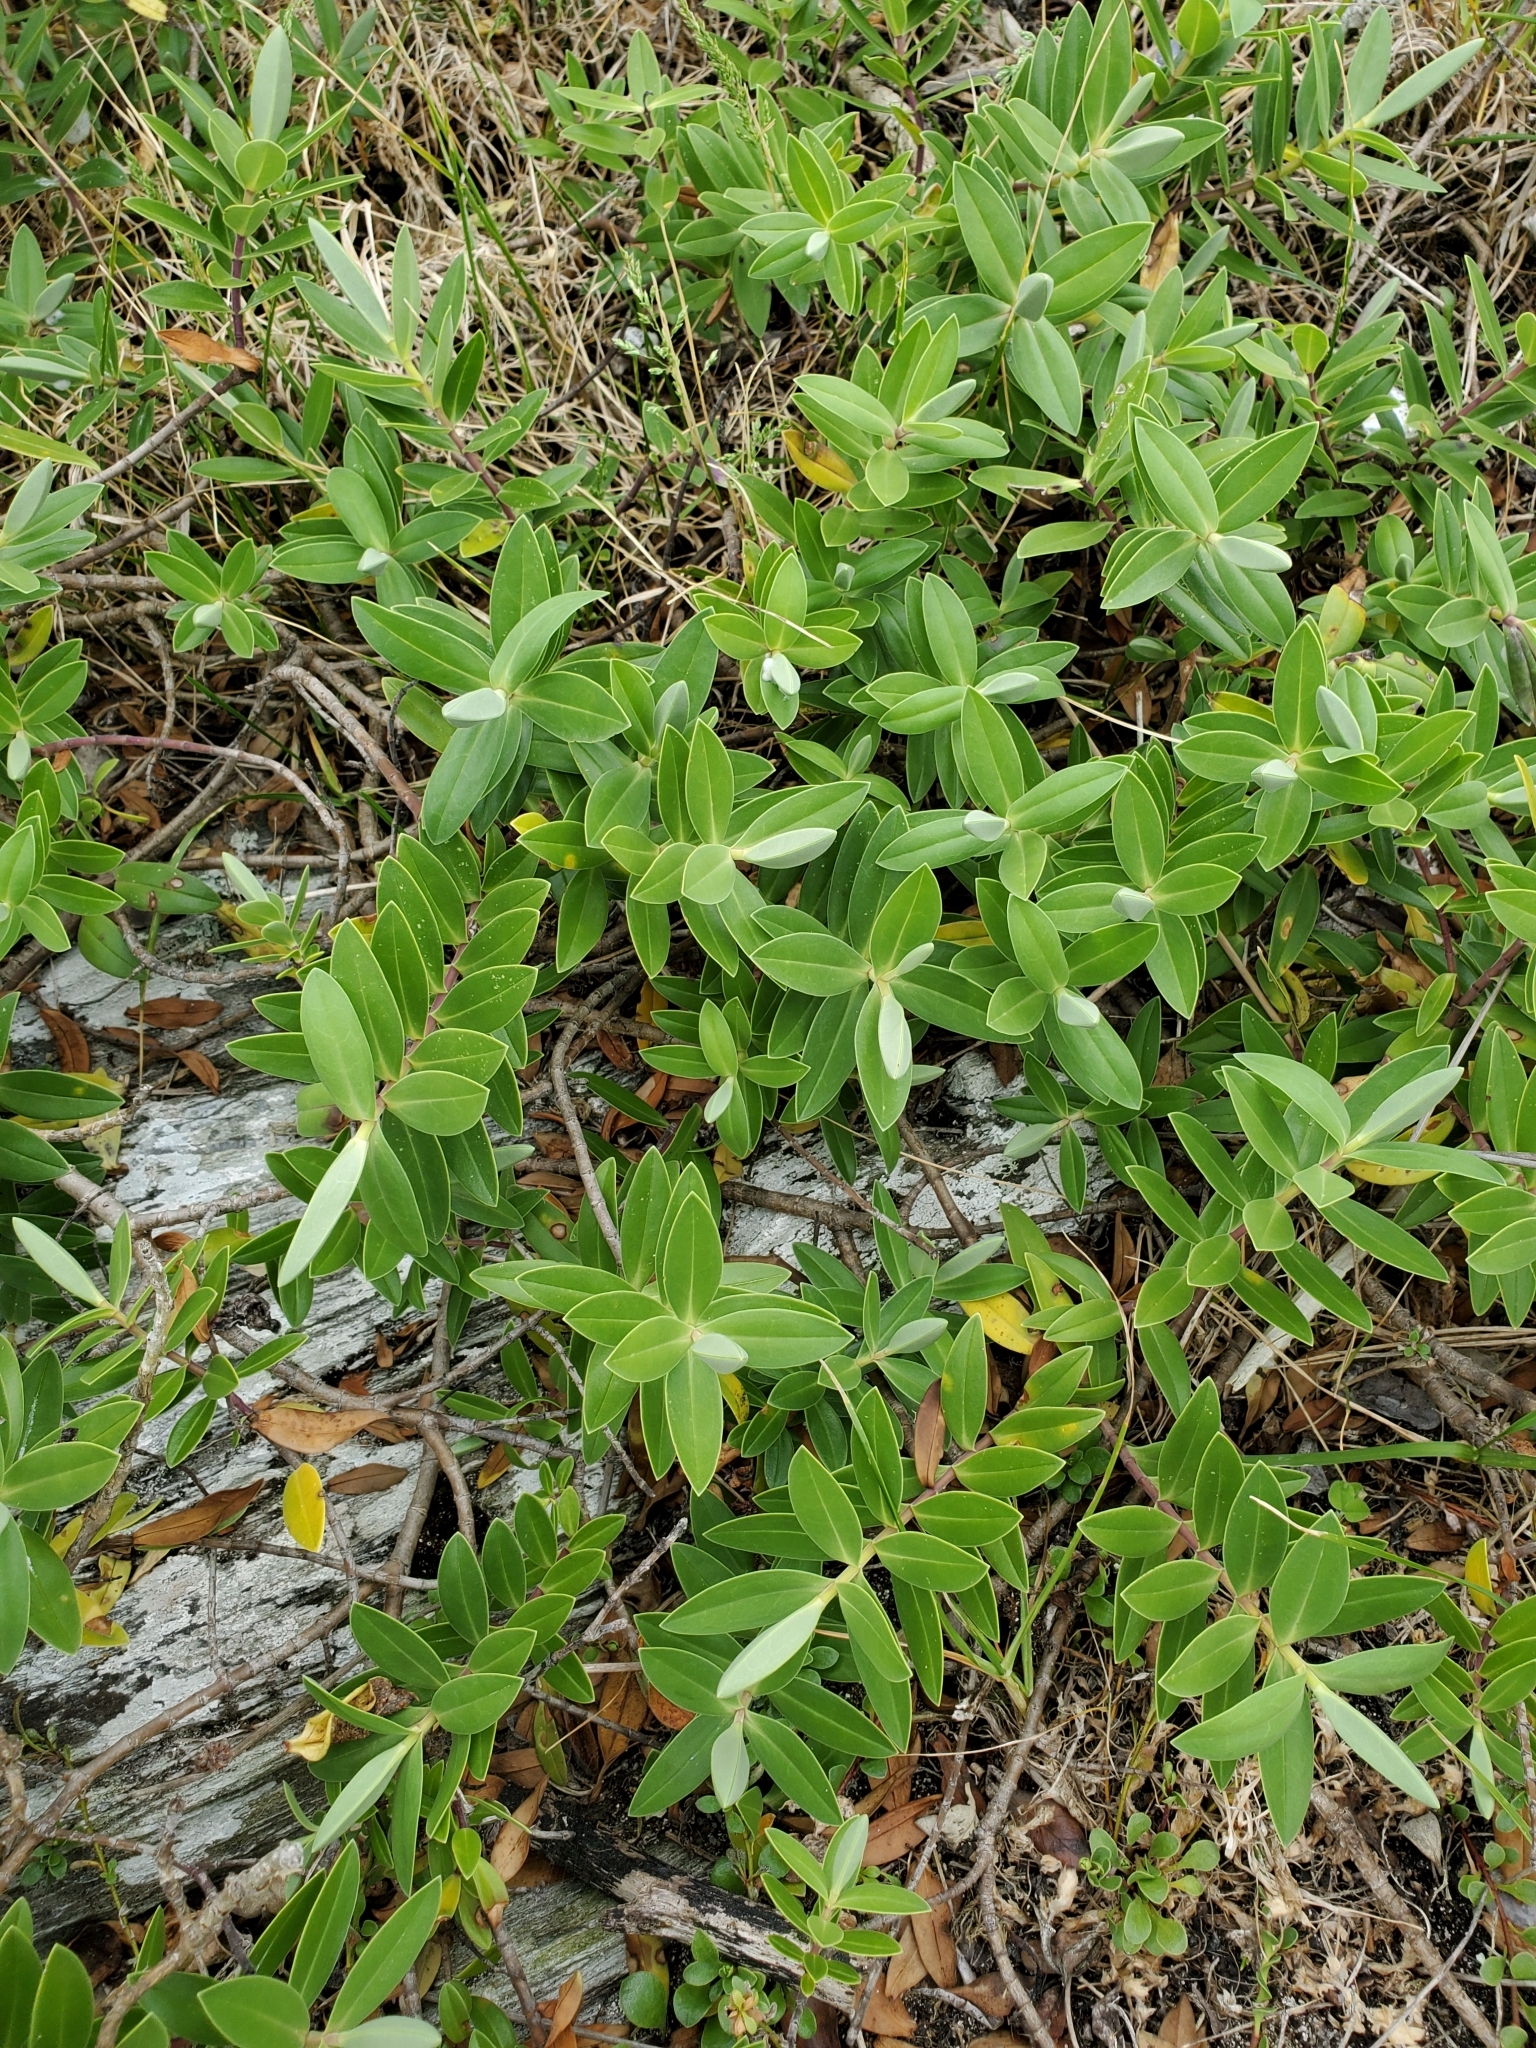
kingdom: Plantae
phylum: Tracheophyta
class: Magnoliopsida
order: Lamiales
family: Plantaginaceae
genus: Veronica
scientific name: Veronica chathamica
